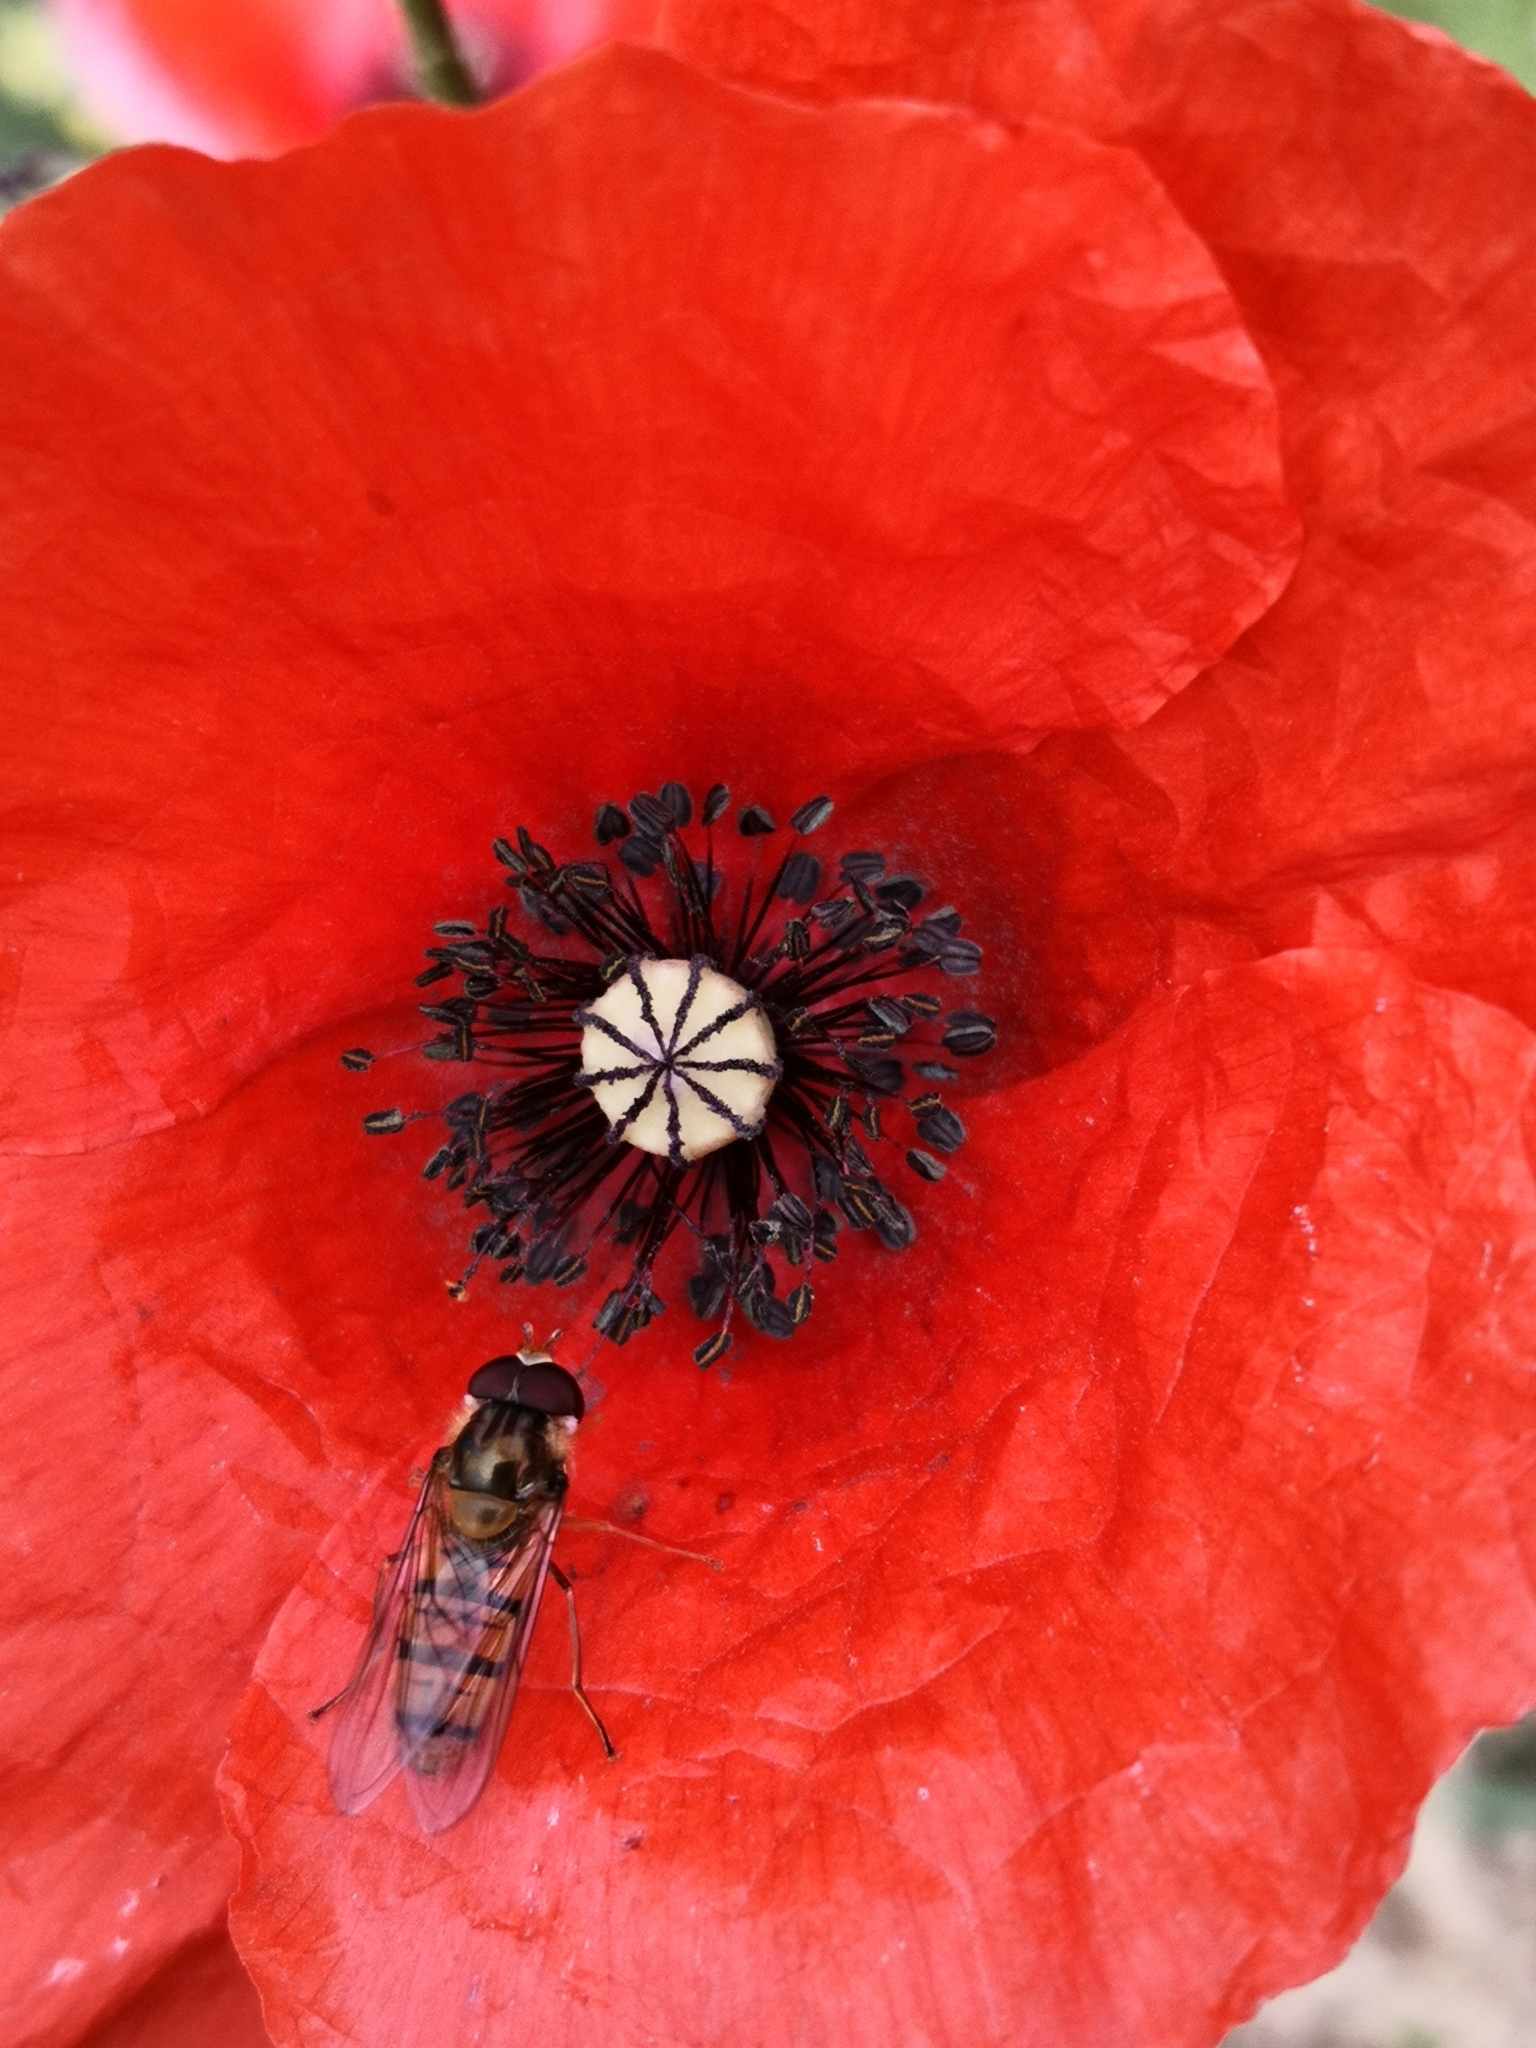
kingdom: Animalia
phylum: Arthropoda
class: Insecta
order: Diptera
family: Syrphidae
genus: Episyrphus
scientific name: Episyrphus balteatus
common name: Marmalade hoverfly
